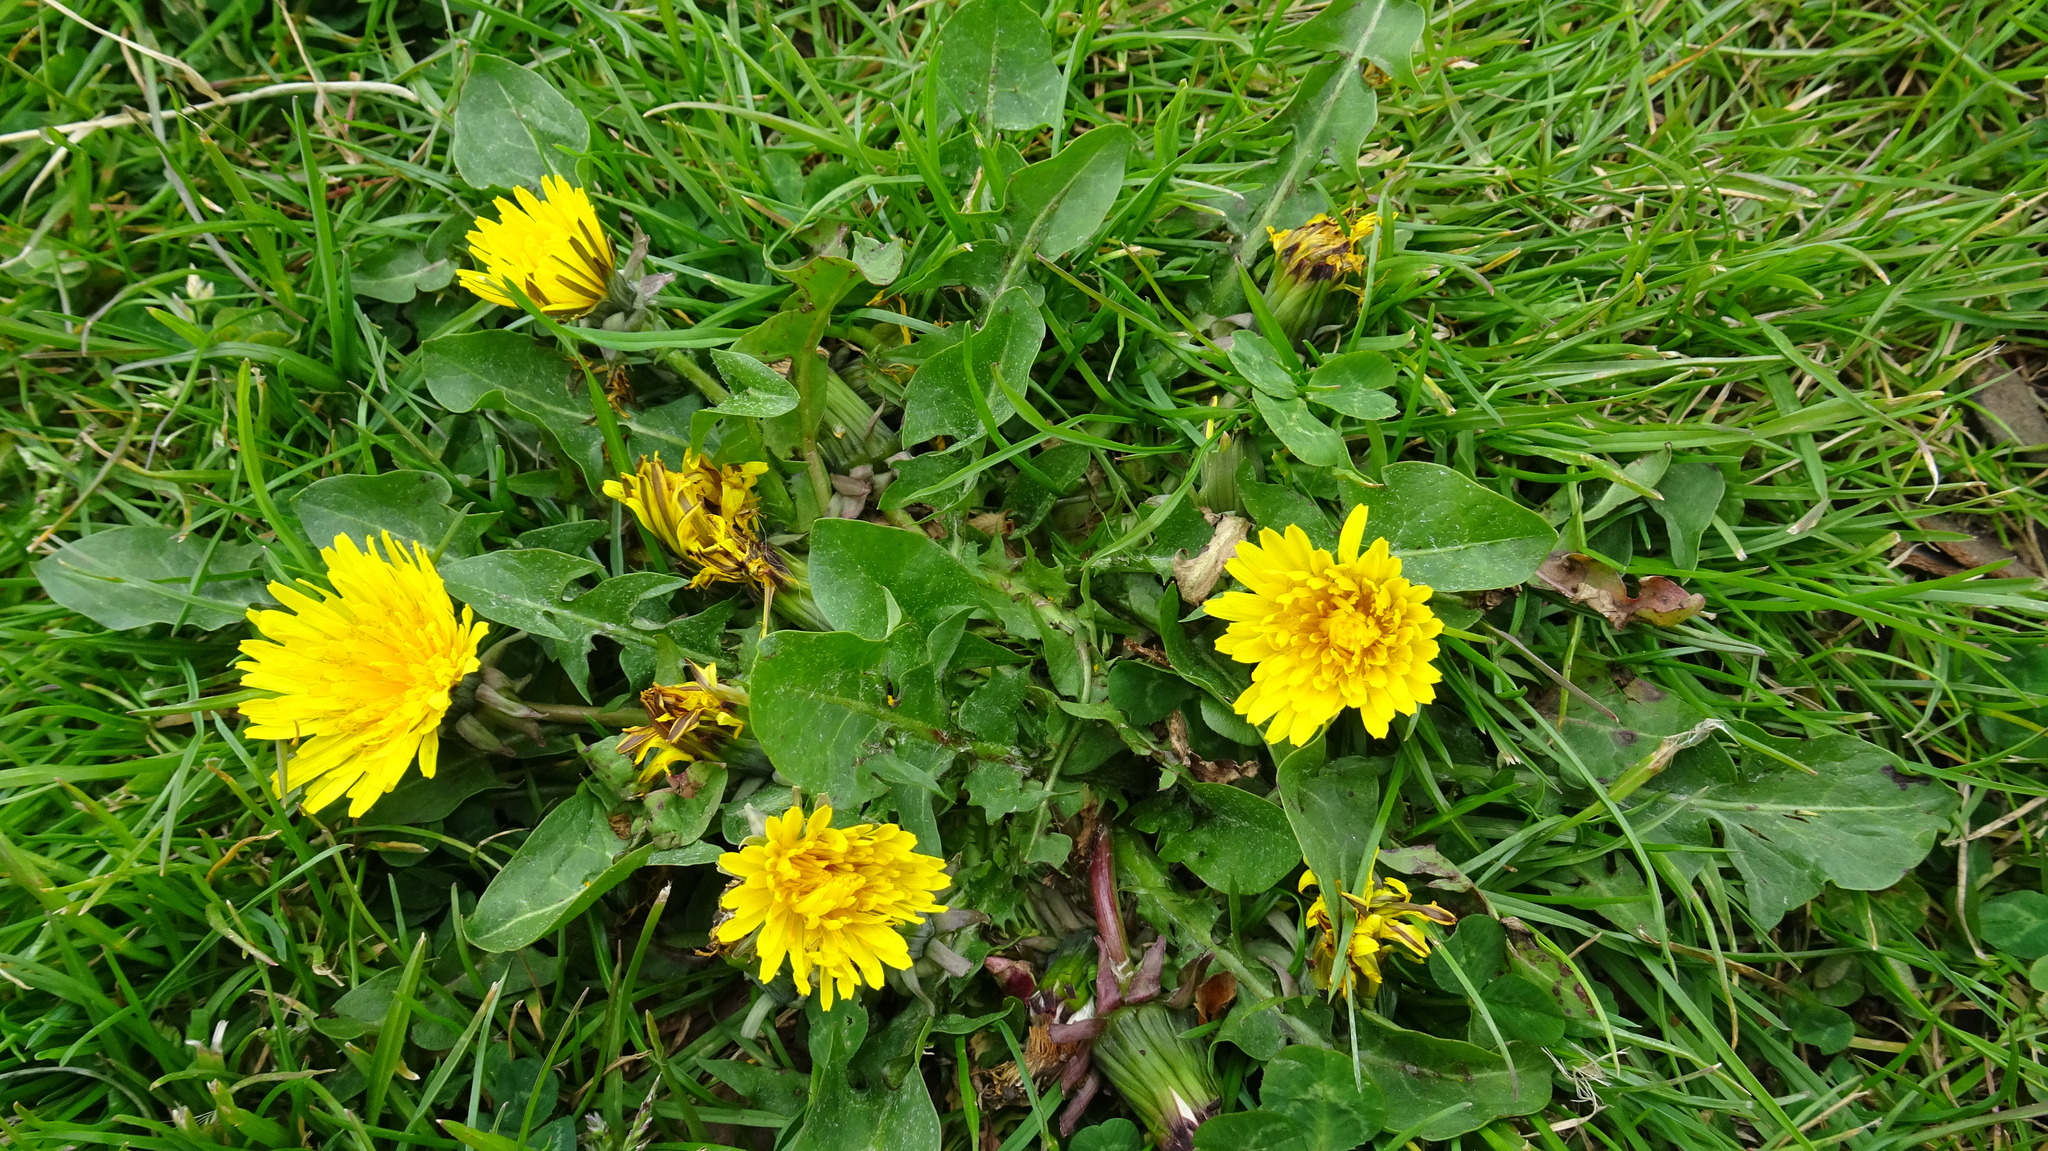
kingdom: Plantae
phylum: Tracheophyta
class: Magnoliopsida
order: Asterales
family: Asteraceae
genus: Taraxacum
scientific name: Taraxacum officinale
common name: Common dandelion
